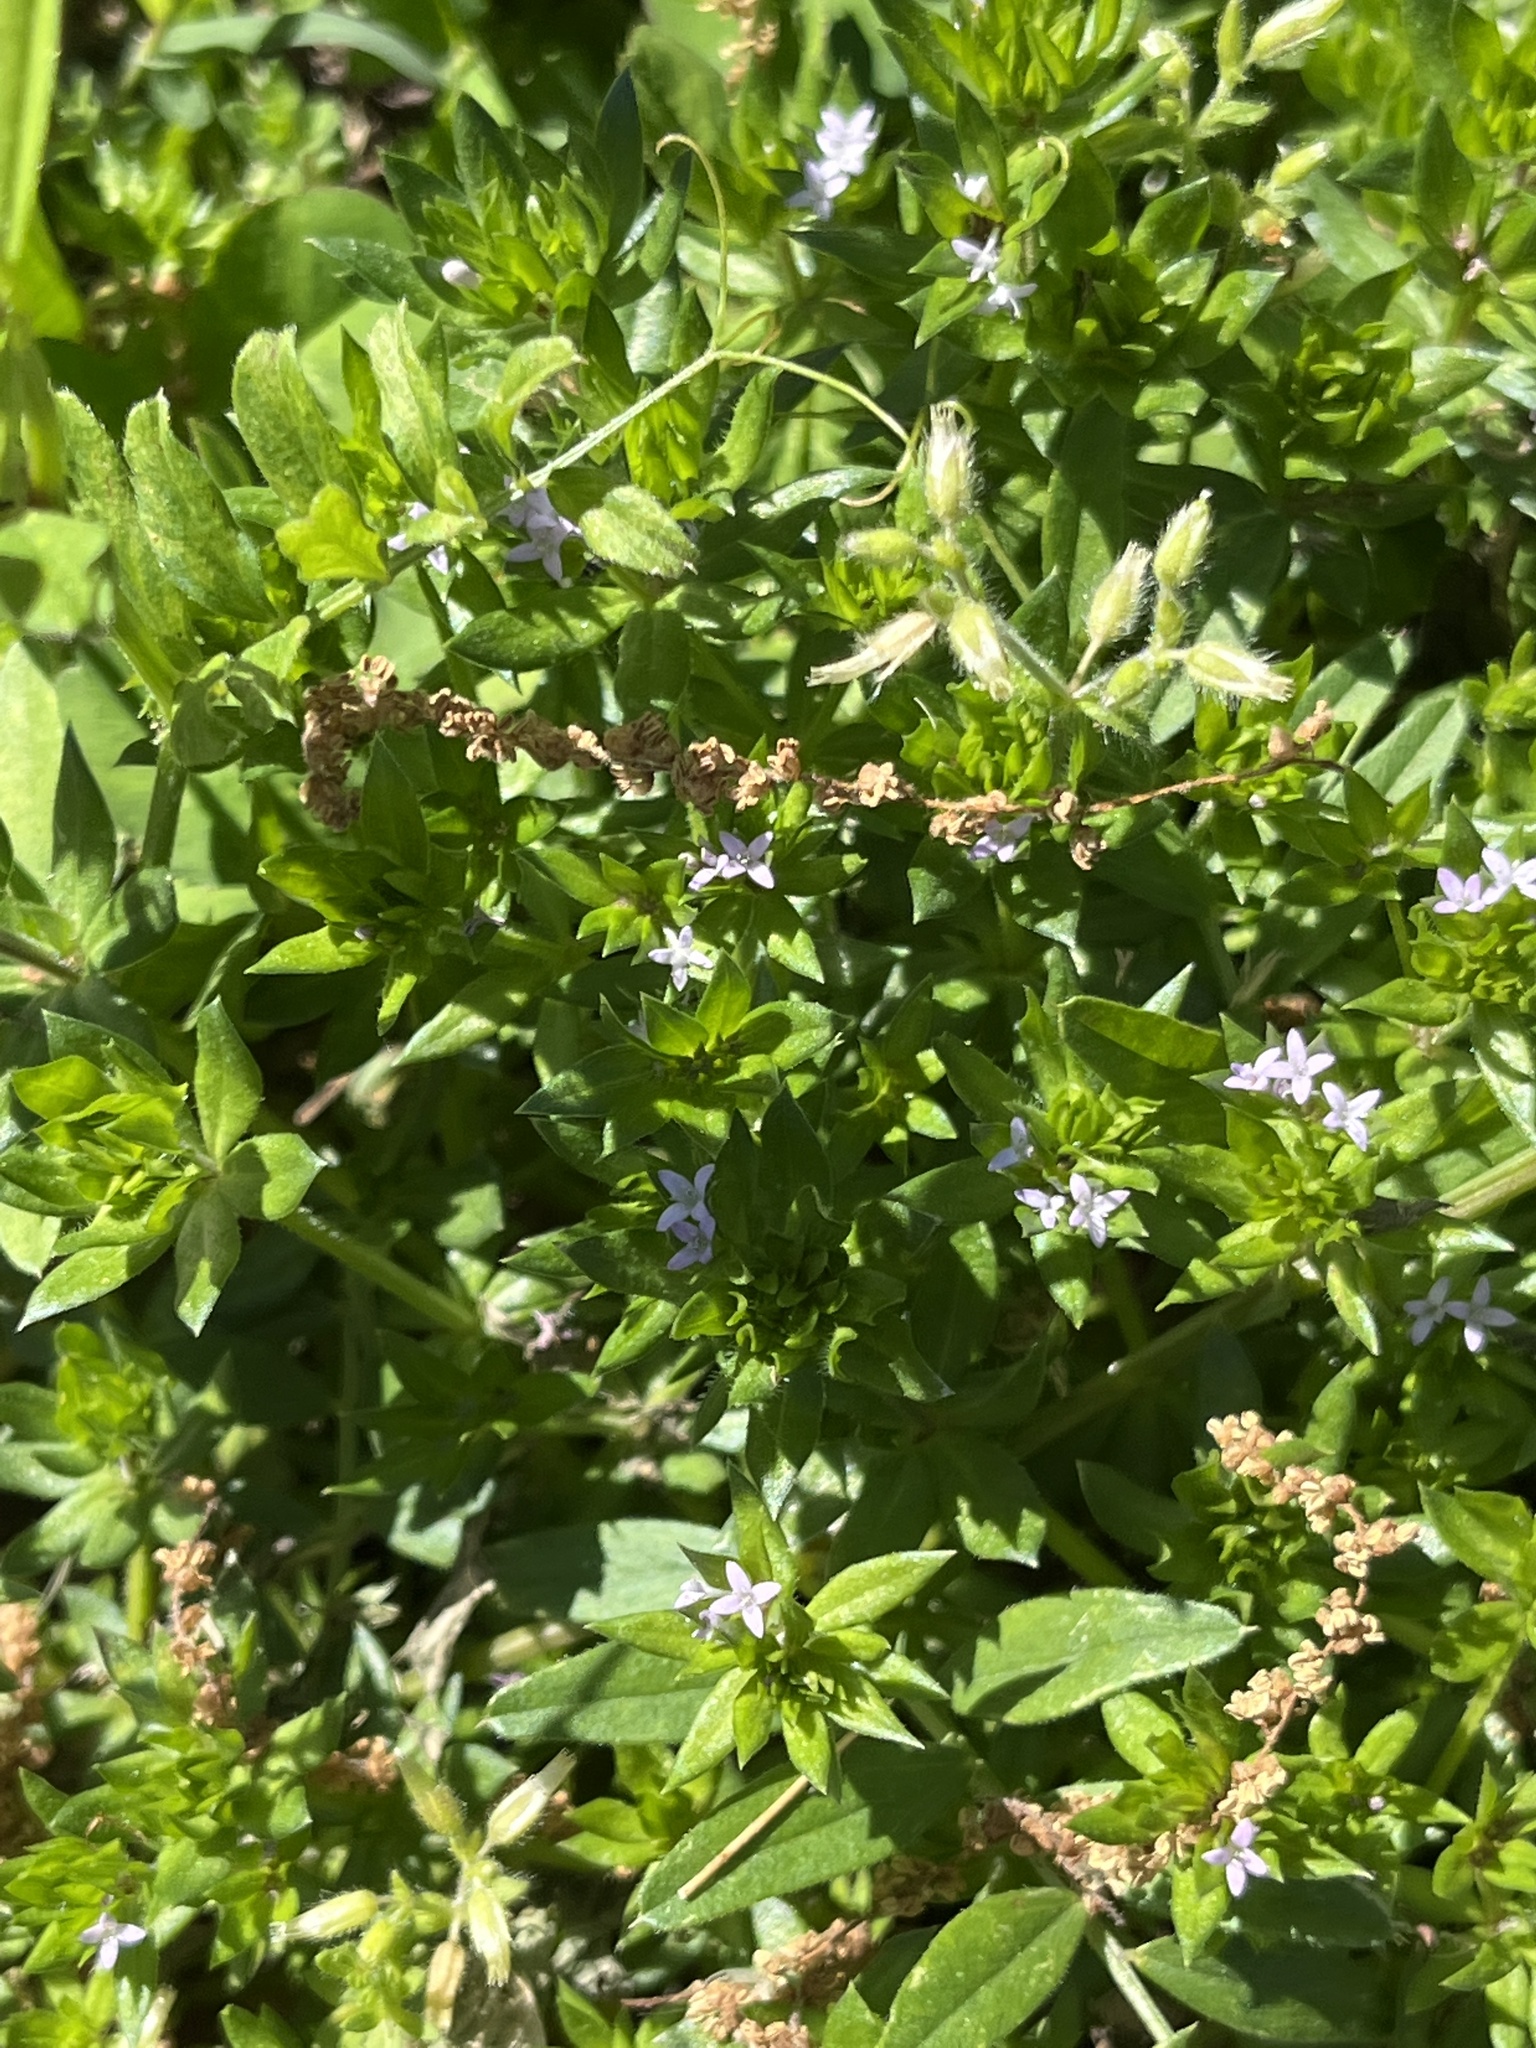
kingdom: Plantae
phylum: Tracheophyta
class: Magnoliopsida
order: Gentianales
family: Rubiaceae
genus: Sherardia
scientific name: Sherardia arvensis
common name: Field madder
